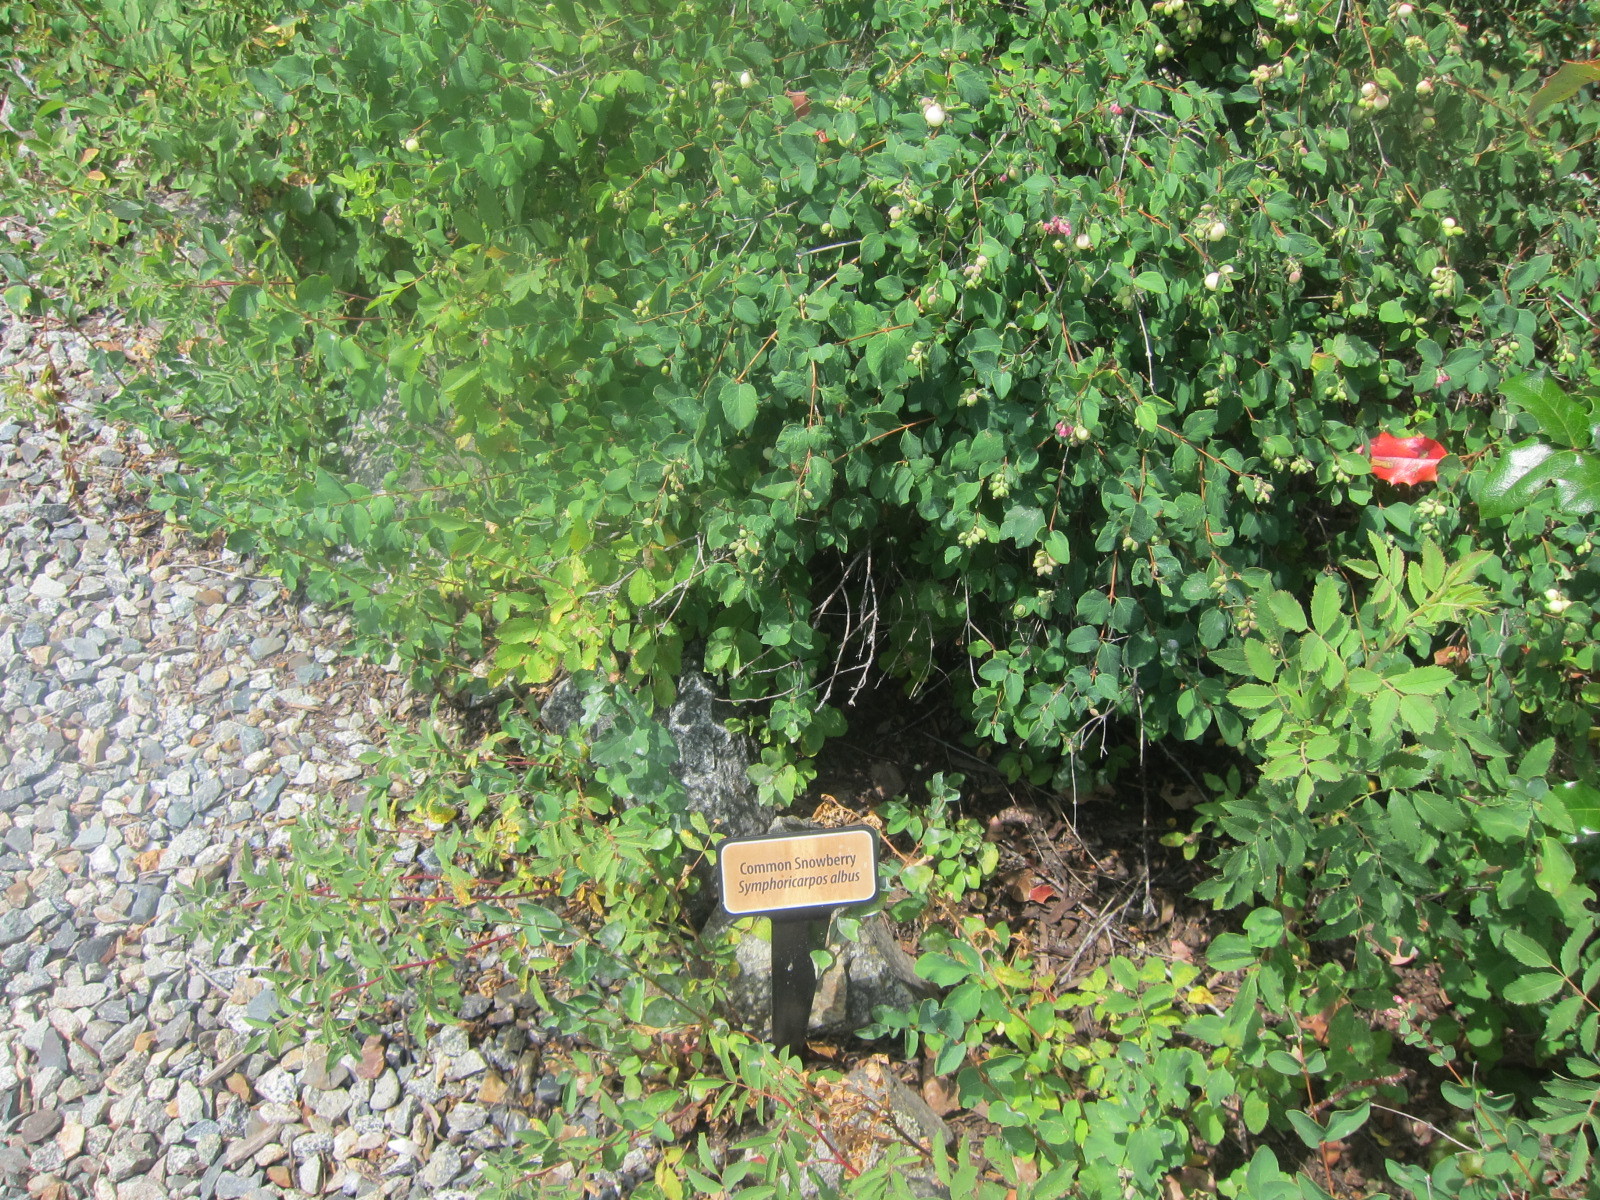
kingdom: Plantae
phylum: Tracheophyta
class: Magnoliopsida
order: Dipsacales
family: Caprifoliaceae
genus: Symphoricarpos
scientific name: Symphoricarpos albus
